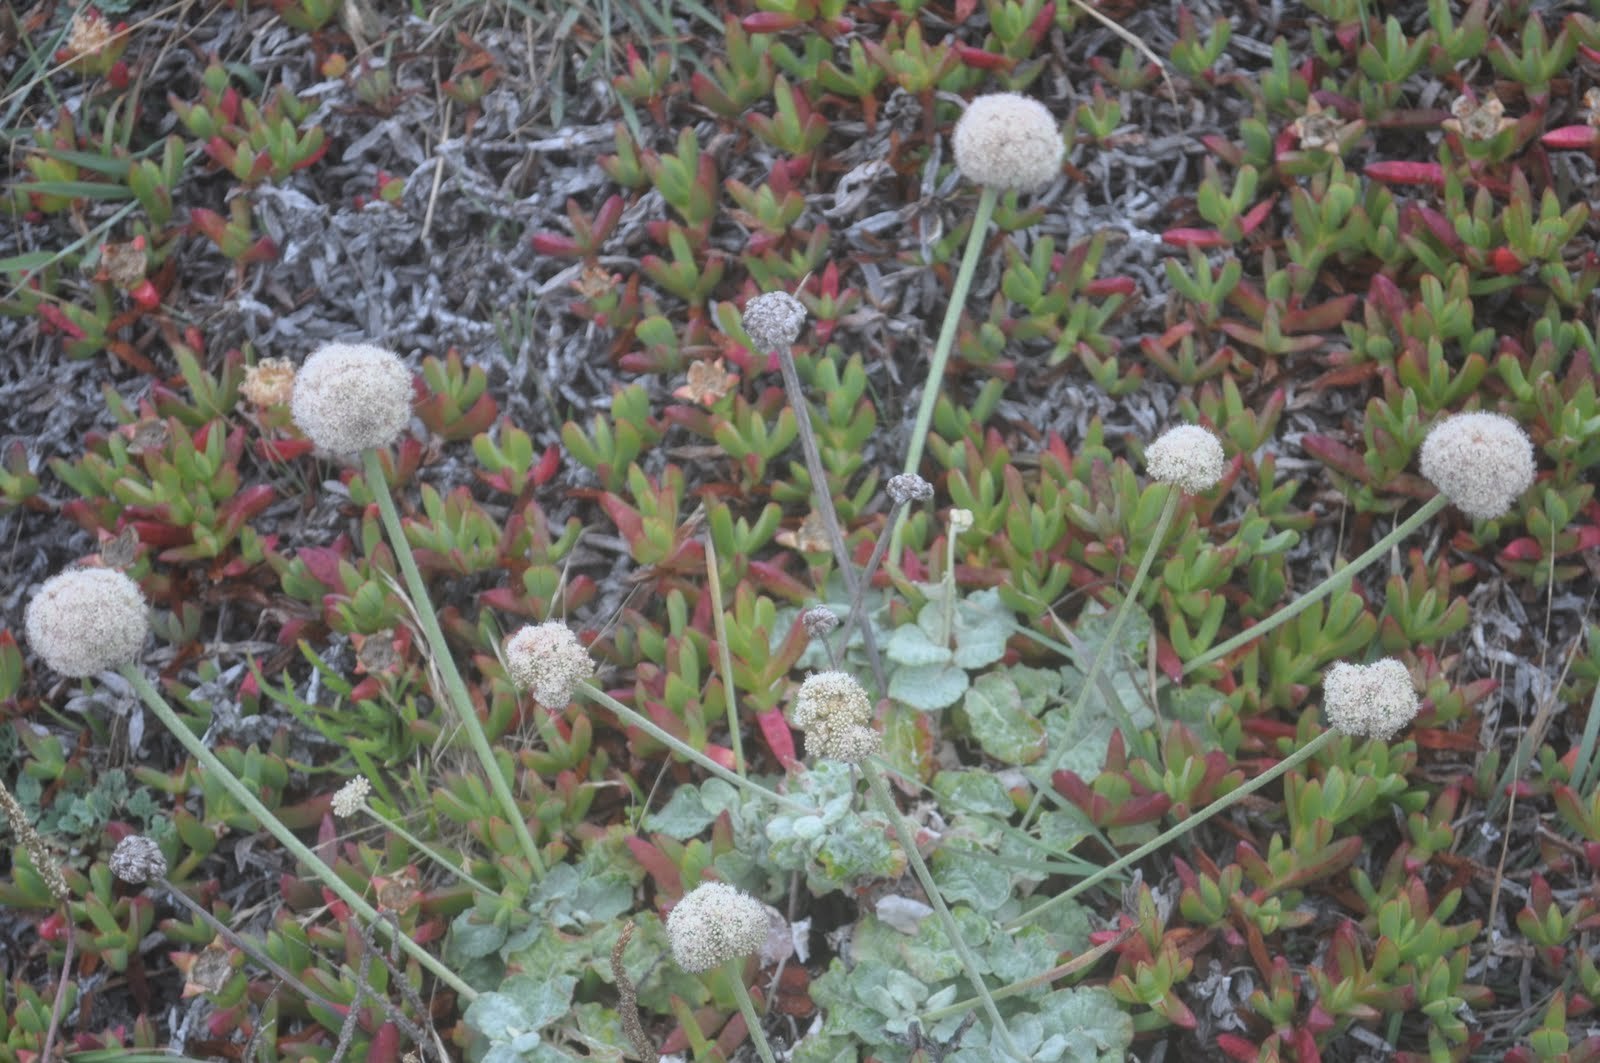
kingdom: Plantae
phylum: Tracheophyta
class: Magnoliopsida
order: Caryophyllales
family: Polygonaceae
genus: Eriogonum
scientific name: Eriogonum latifolium
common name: Seaside wild buckwheat
